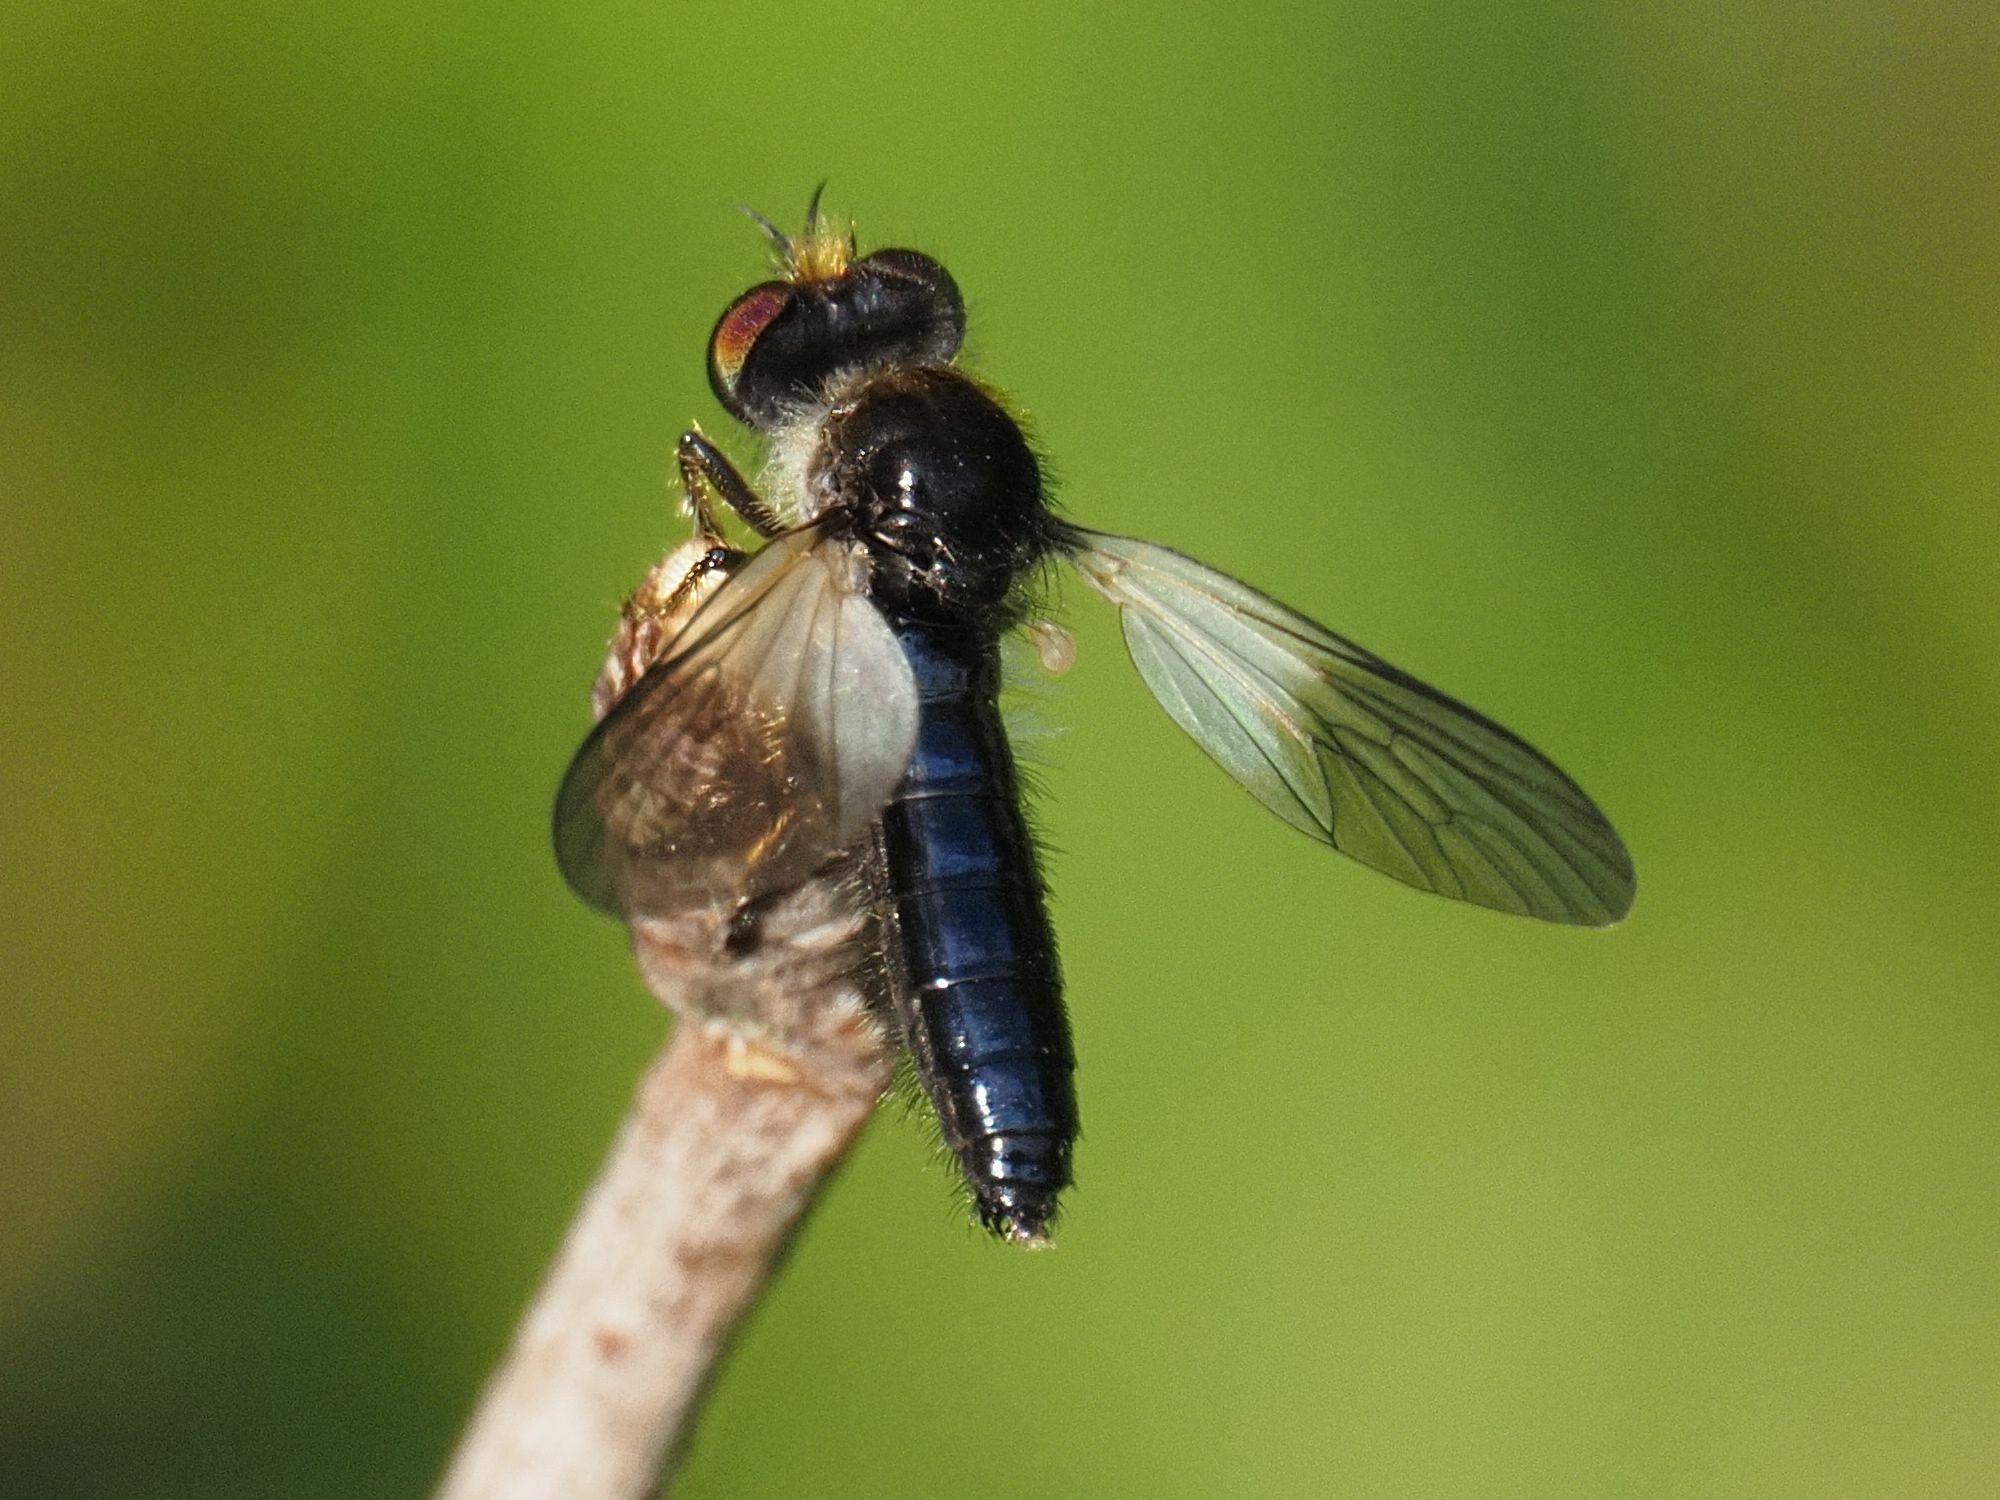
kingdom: Animalia
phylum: Arthropoda
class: Insecta
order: Diptera
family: Asilidae
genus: Podoctria
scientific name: Podoctria nigripennis
